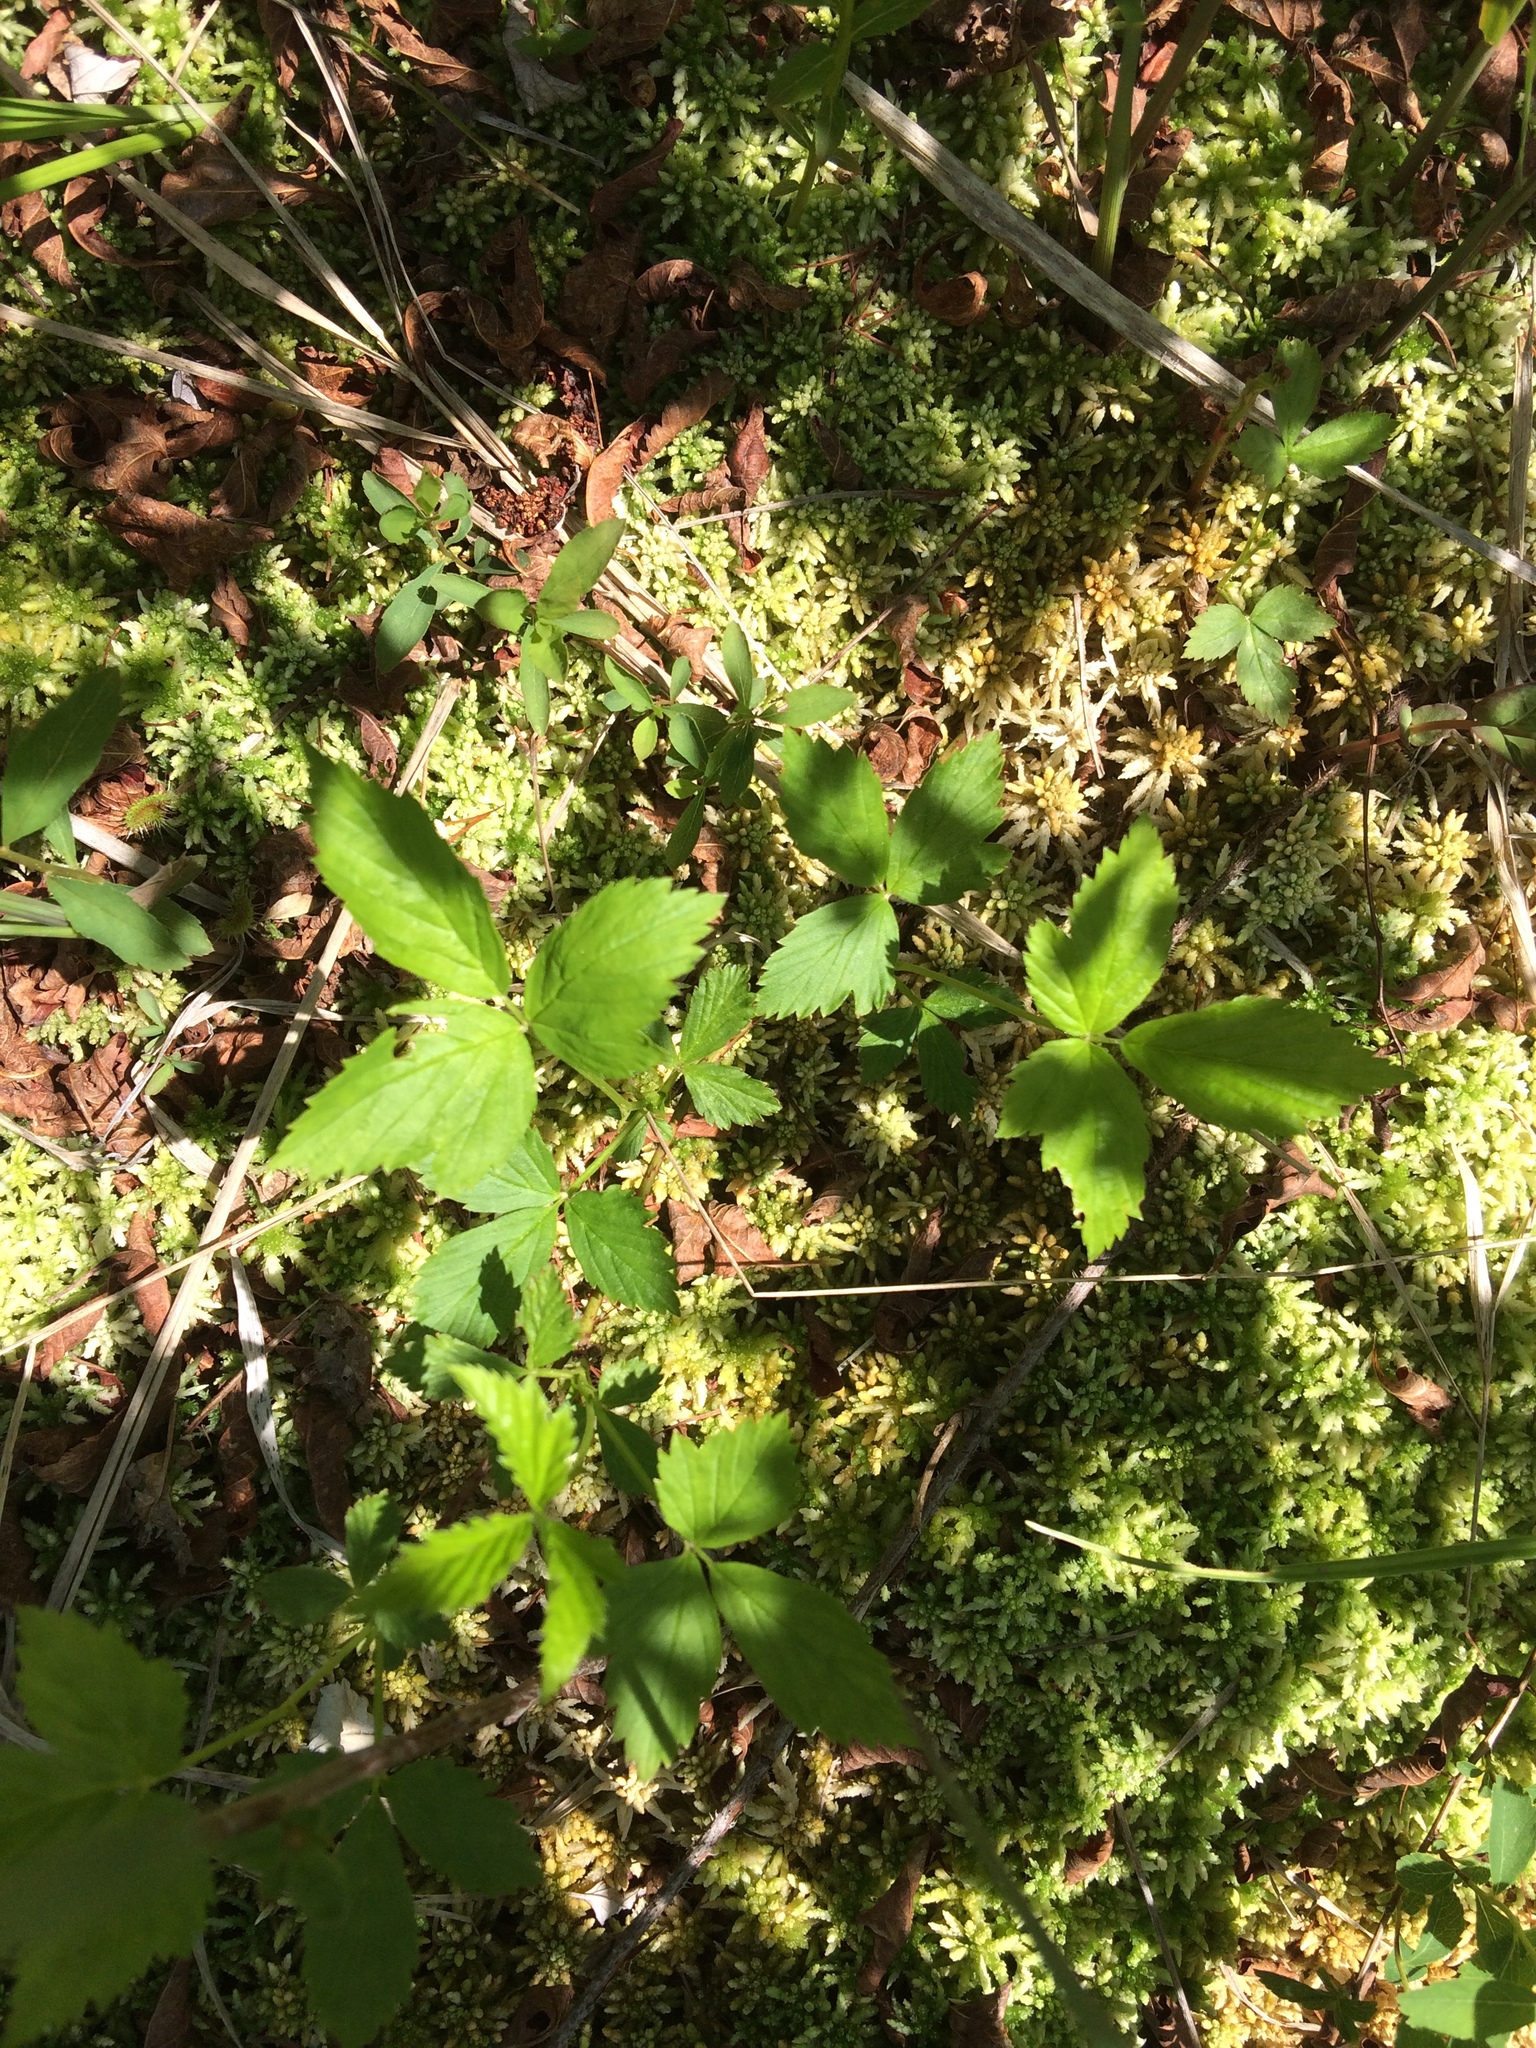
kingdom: Plantae
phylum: Tracheophyta
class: Magnoliopsida
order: Rosales
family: Rosaceae
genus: Rubus
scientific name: Rubus pubescens
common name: Dwarf raspberry
